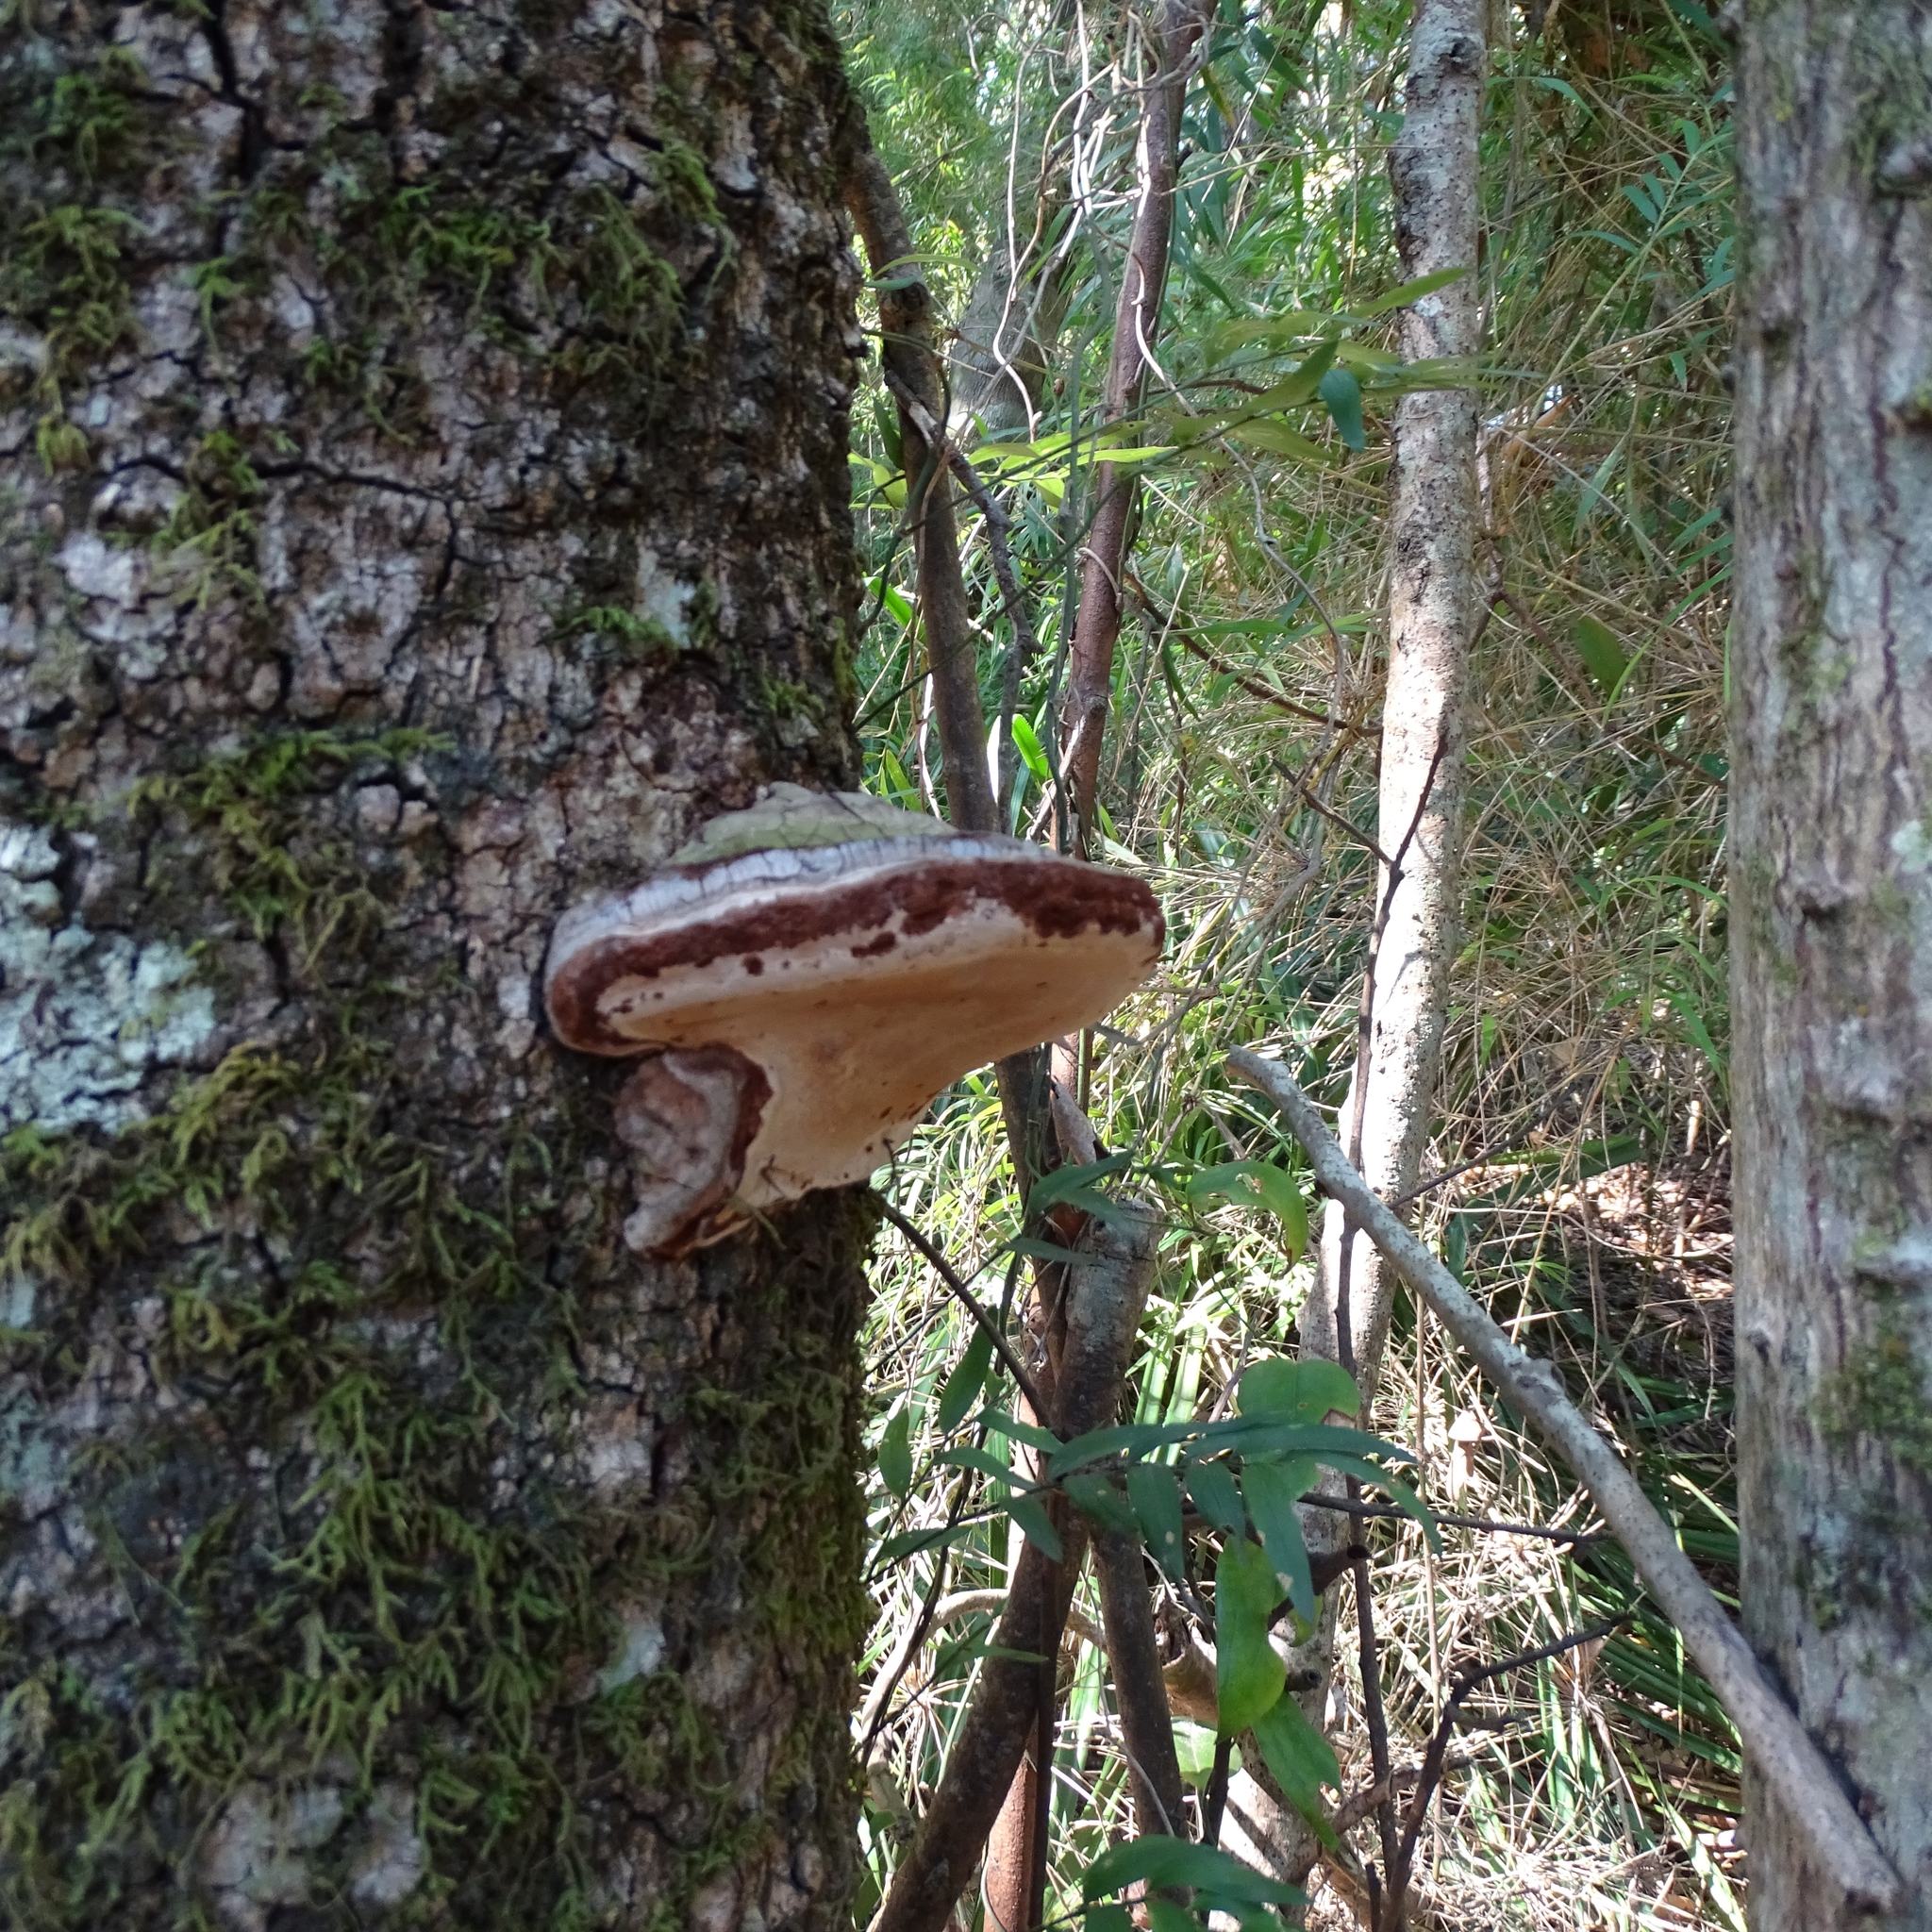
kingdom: Fungi
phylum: Basidiomycota
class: Agaricomycetes
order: Polyporales
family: Polyporaceae
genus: Ganoderma
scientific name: Ganoderma australe
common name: Southern bracket
